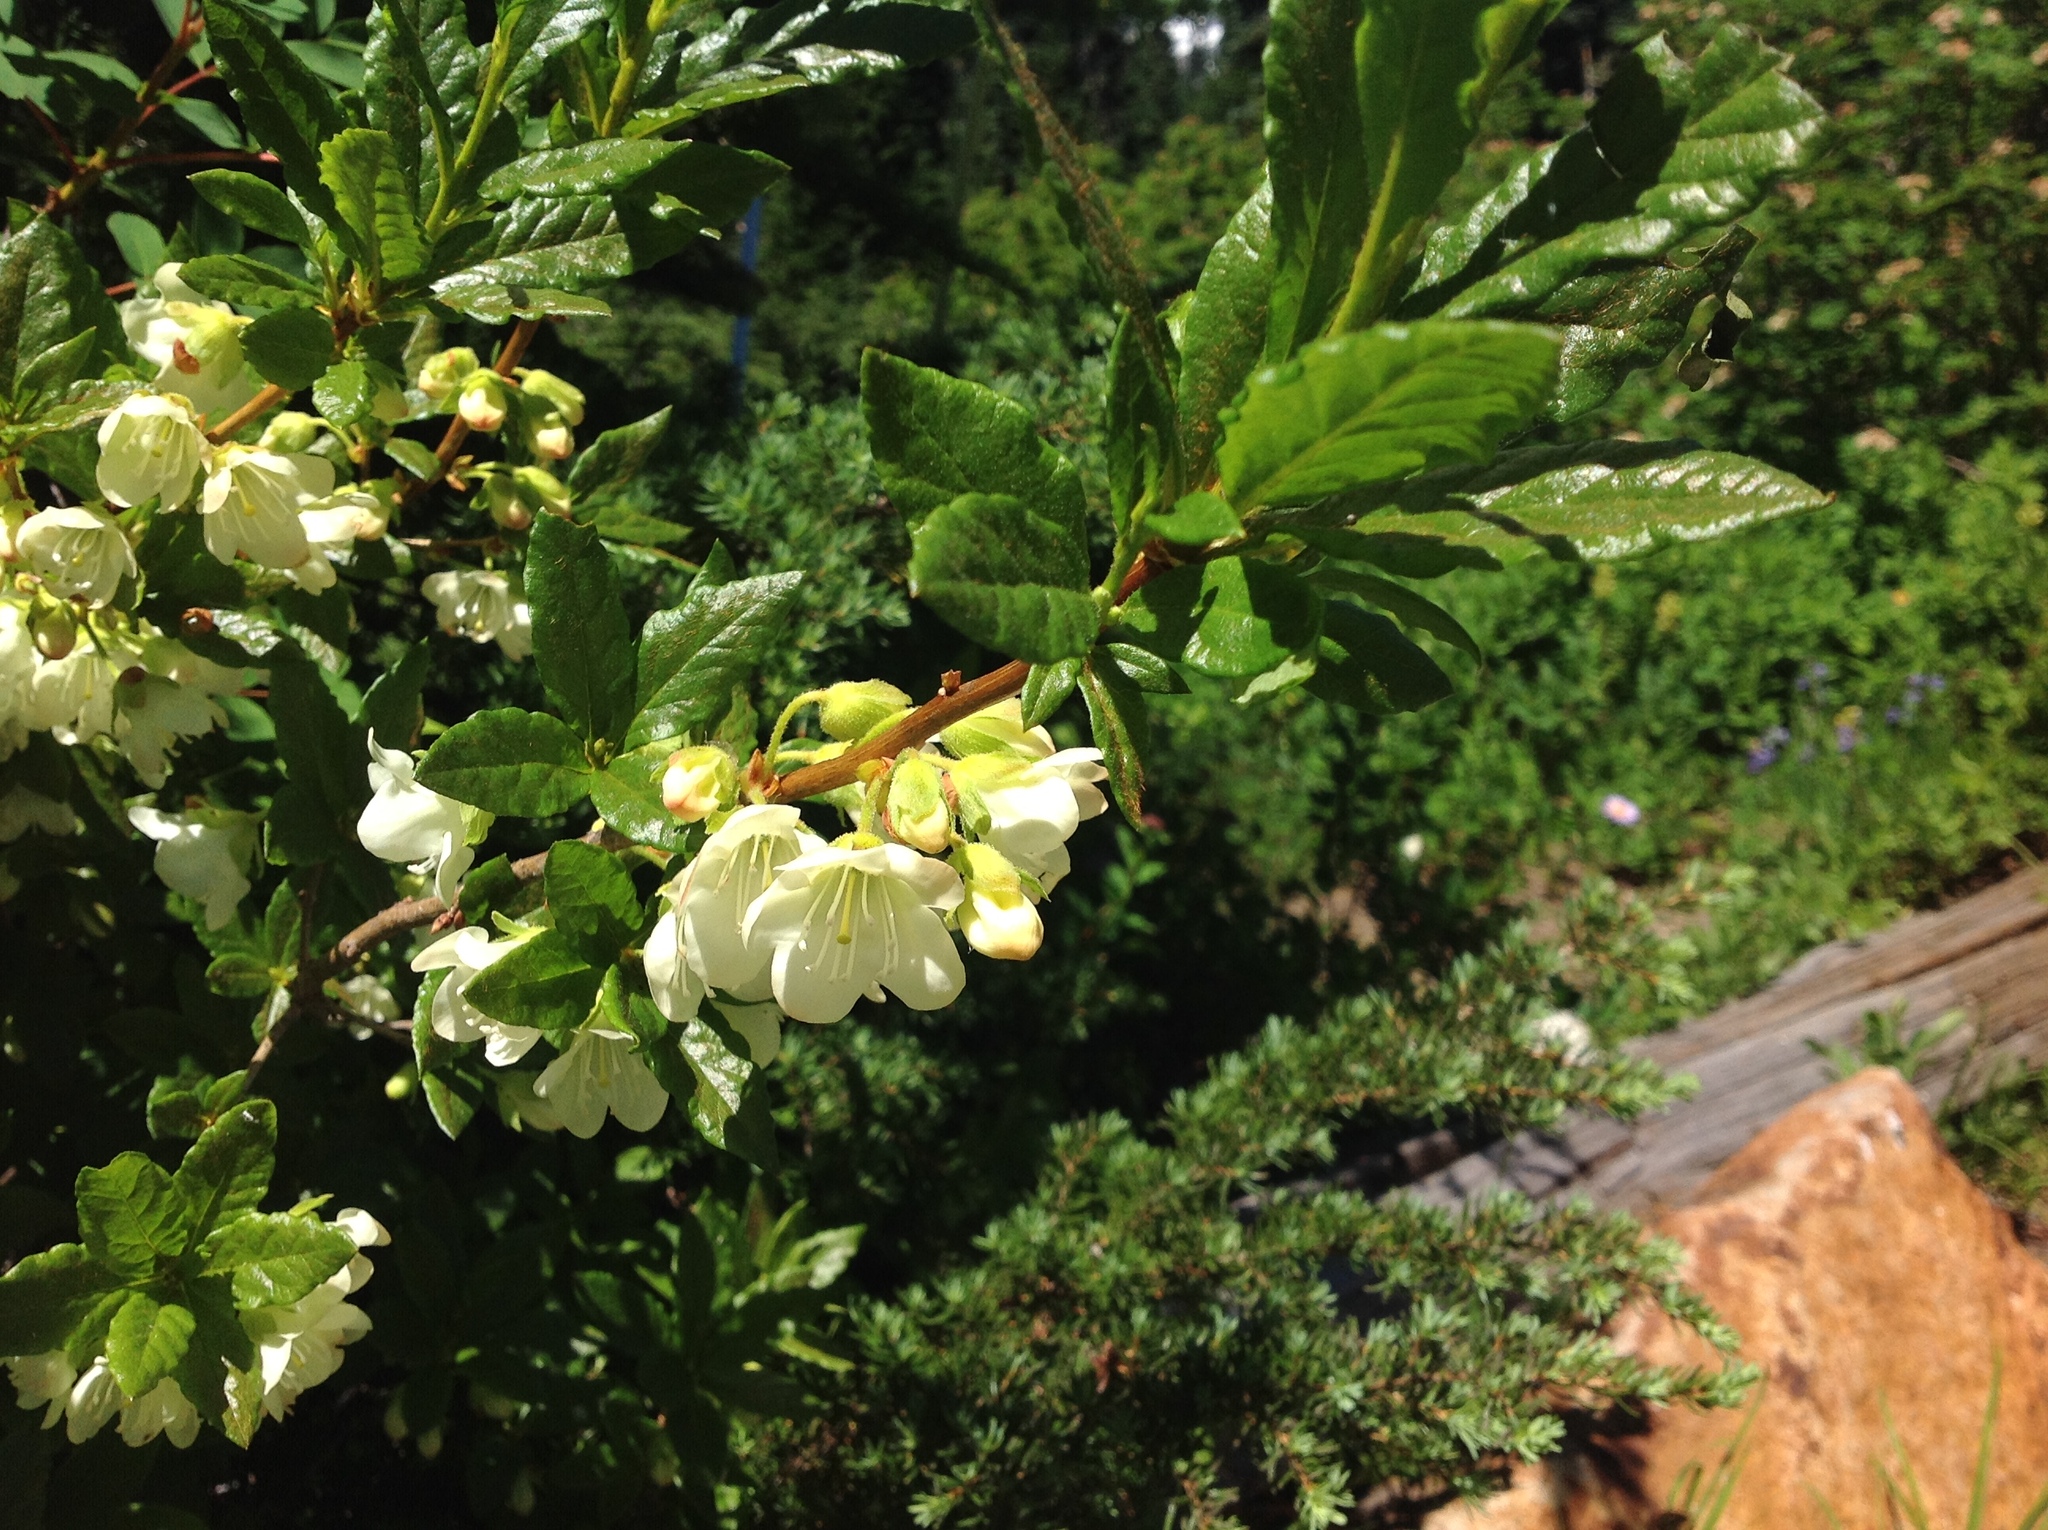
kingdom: Plantae
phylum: Tracheophyta
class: Magnoliopsida
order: Ericales
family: Ericaceae
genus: Rhododendron
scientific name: Rhododendron albiflorum
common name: White rhododendron
